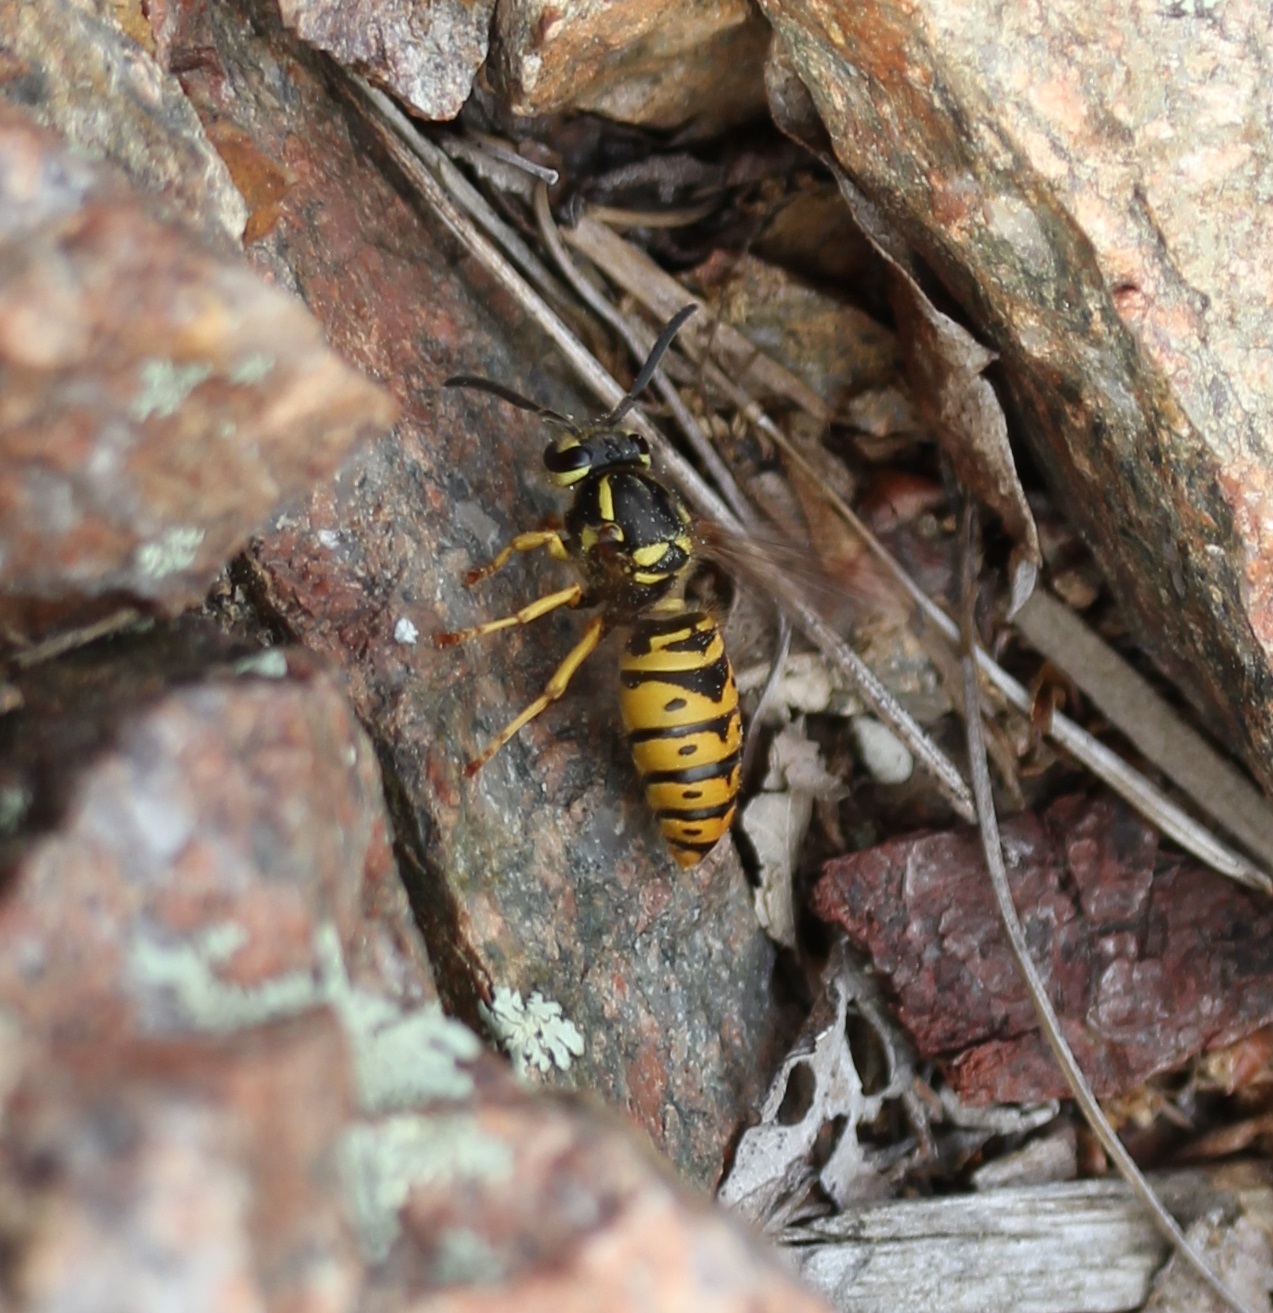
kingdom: Animalia
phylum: Arthropoda
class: Insecta
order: Hymenoptera
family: Vespidae
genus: Vespula
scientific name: Vespula maculifrons
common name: Eastern yellowjacket
